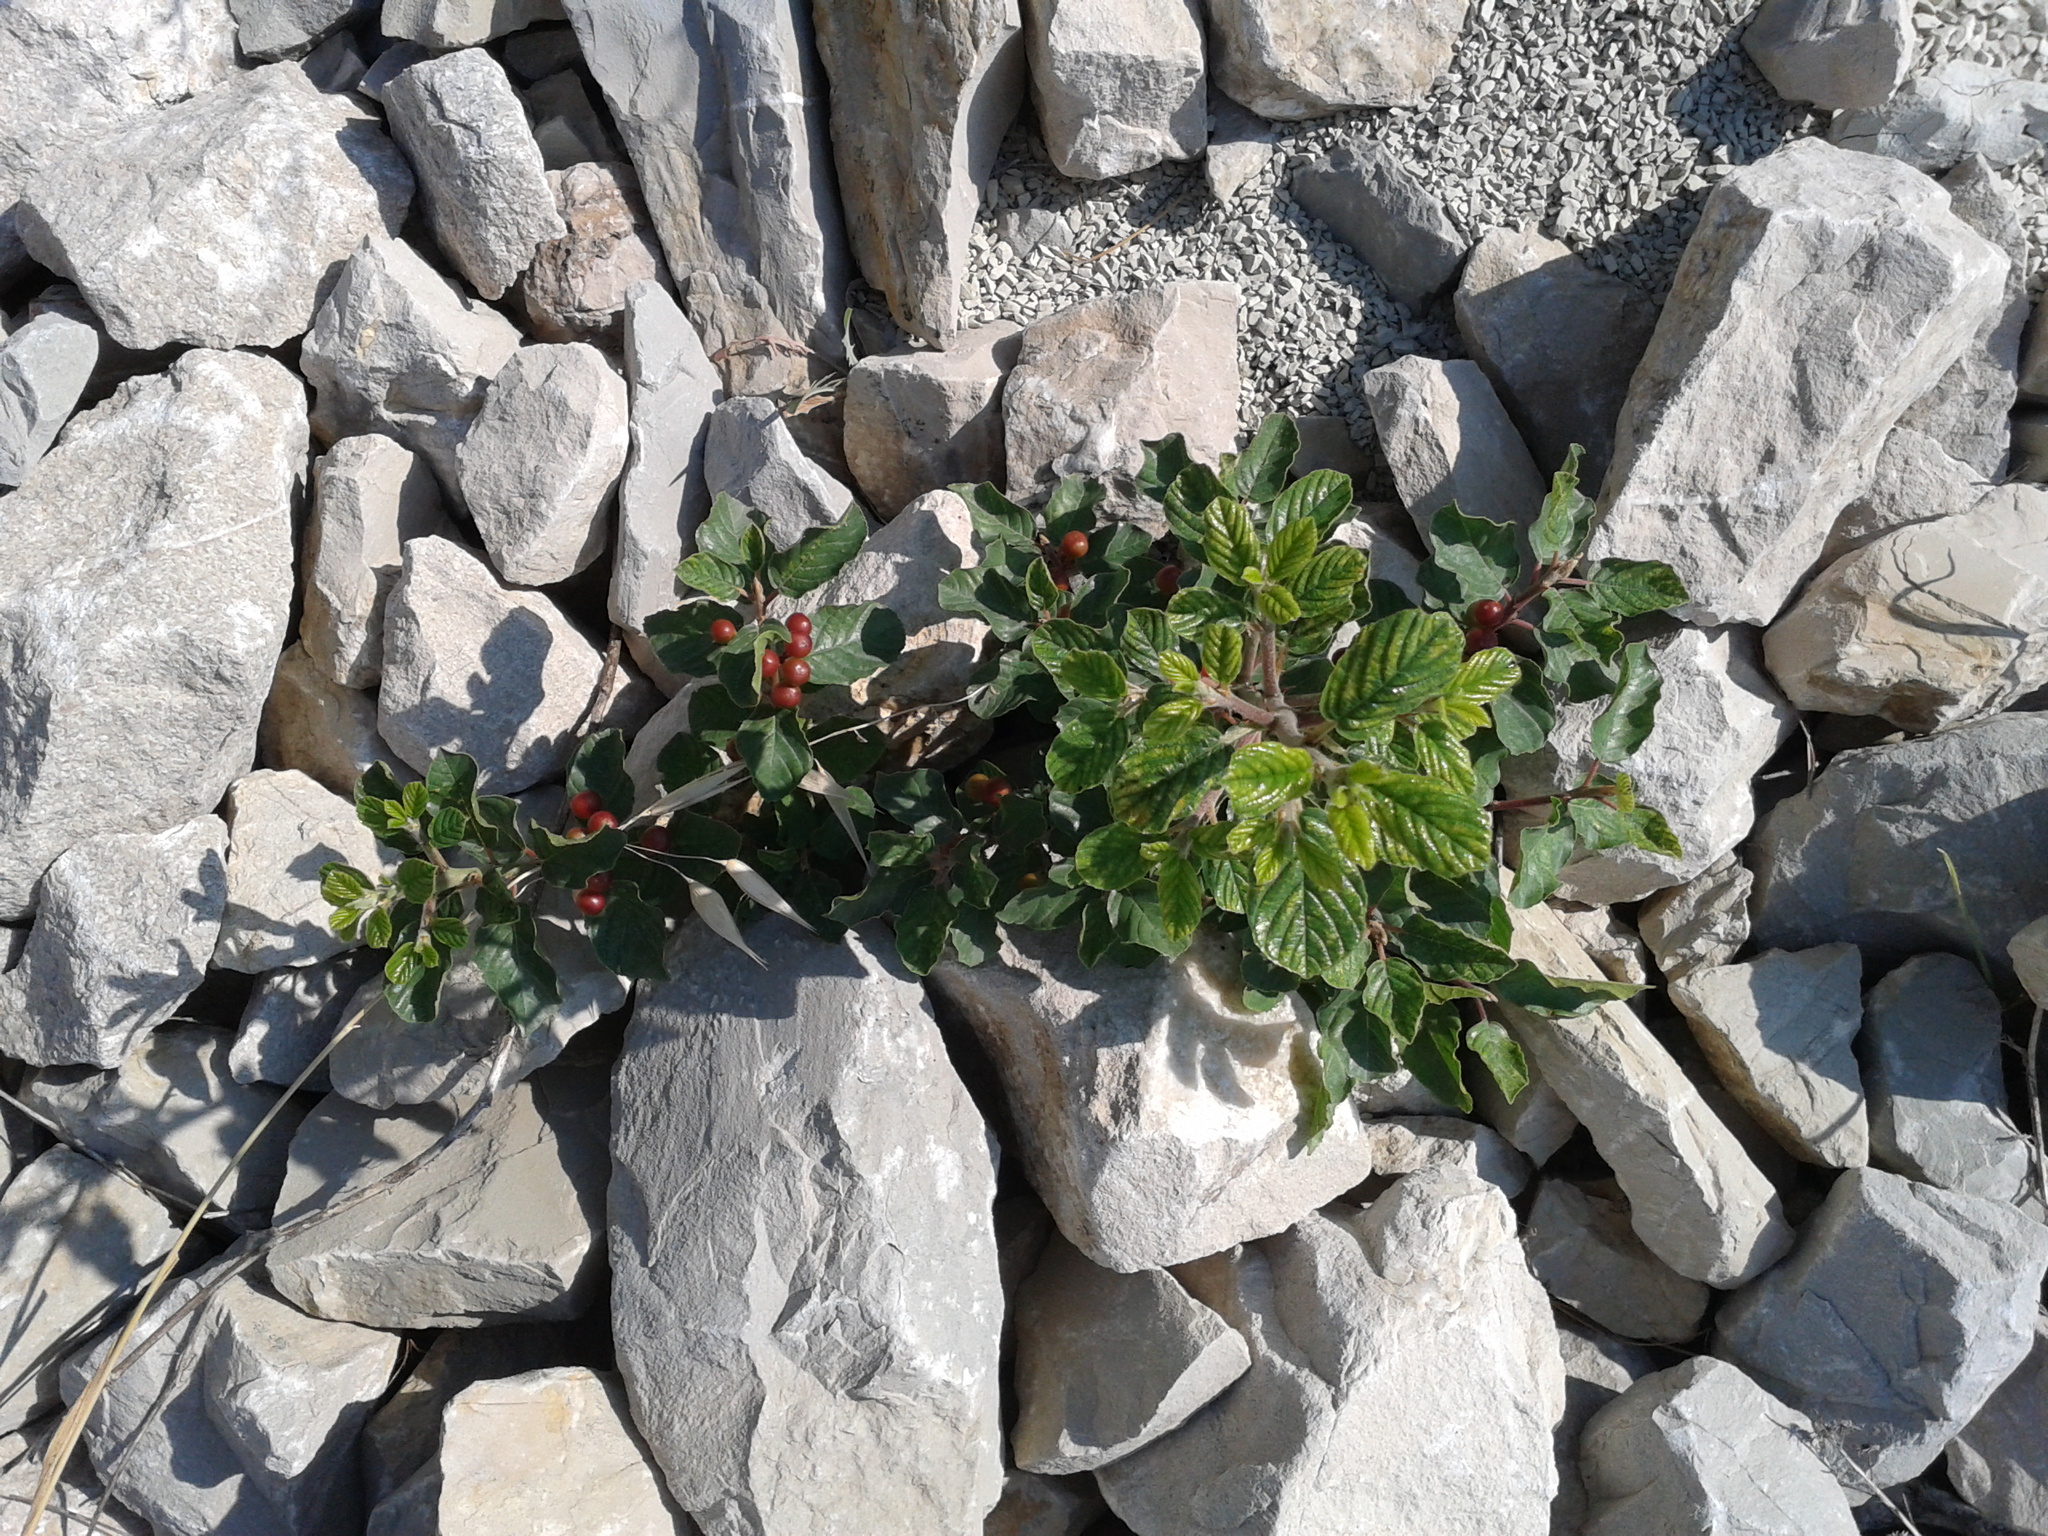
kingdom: Plantae
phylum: Tracheophyta
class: Magnoliopsida
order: Rosales
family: Rhamnaceae
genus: Frangula
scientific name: Frangula rupestris
